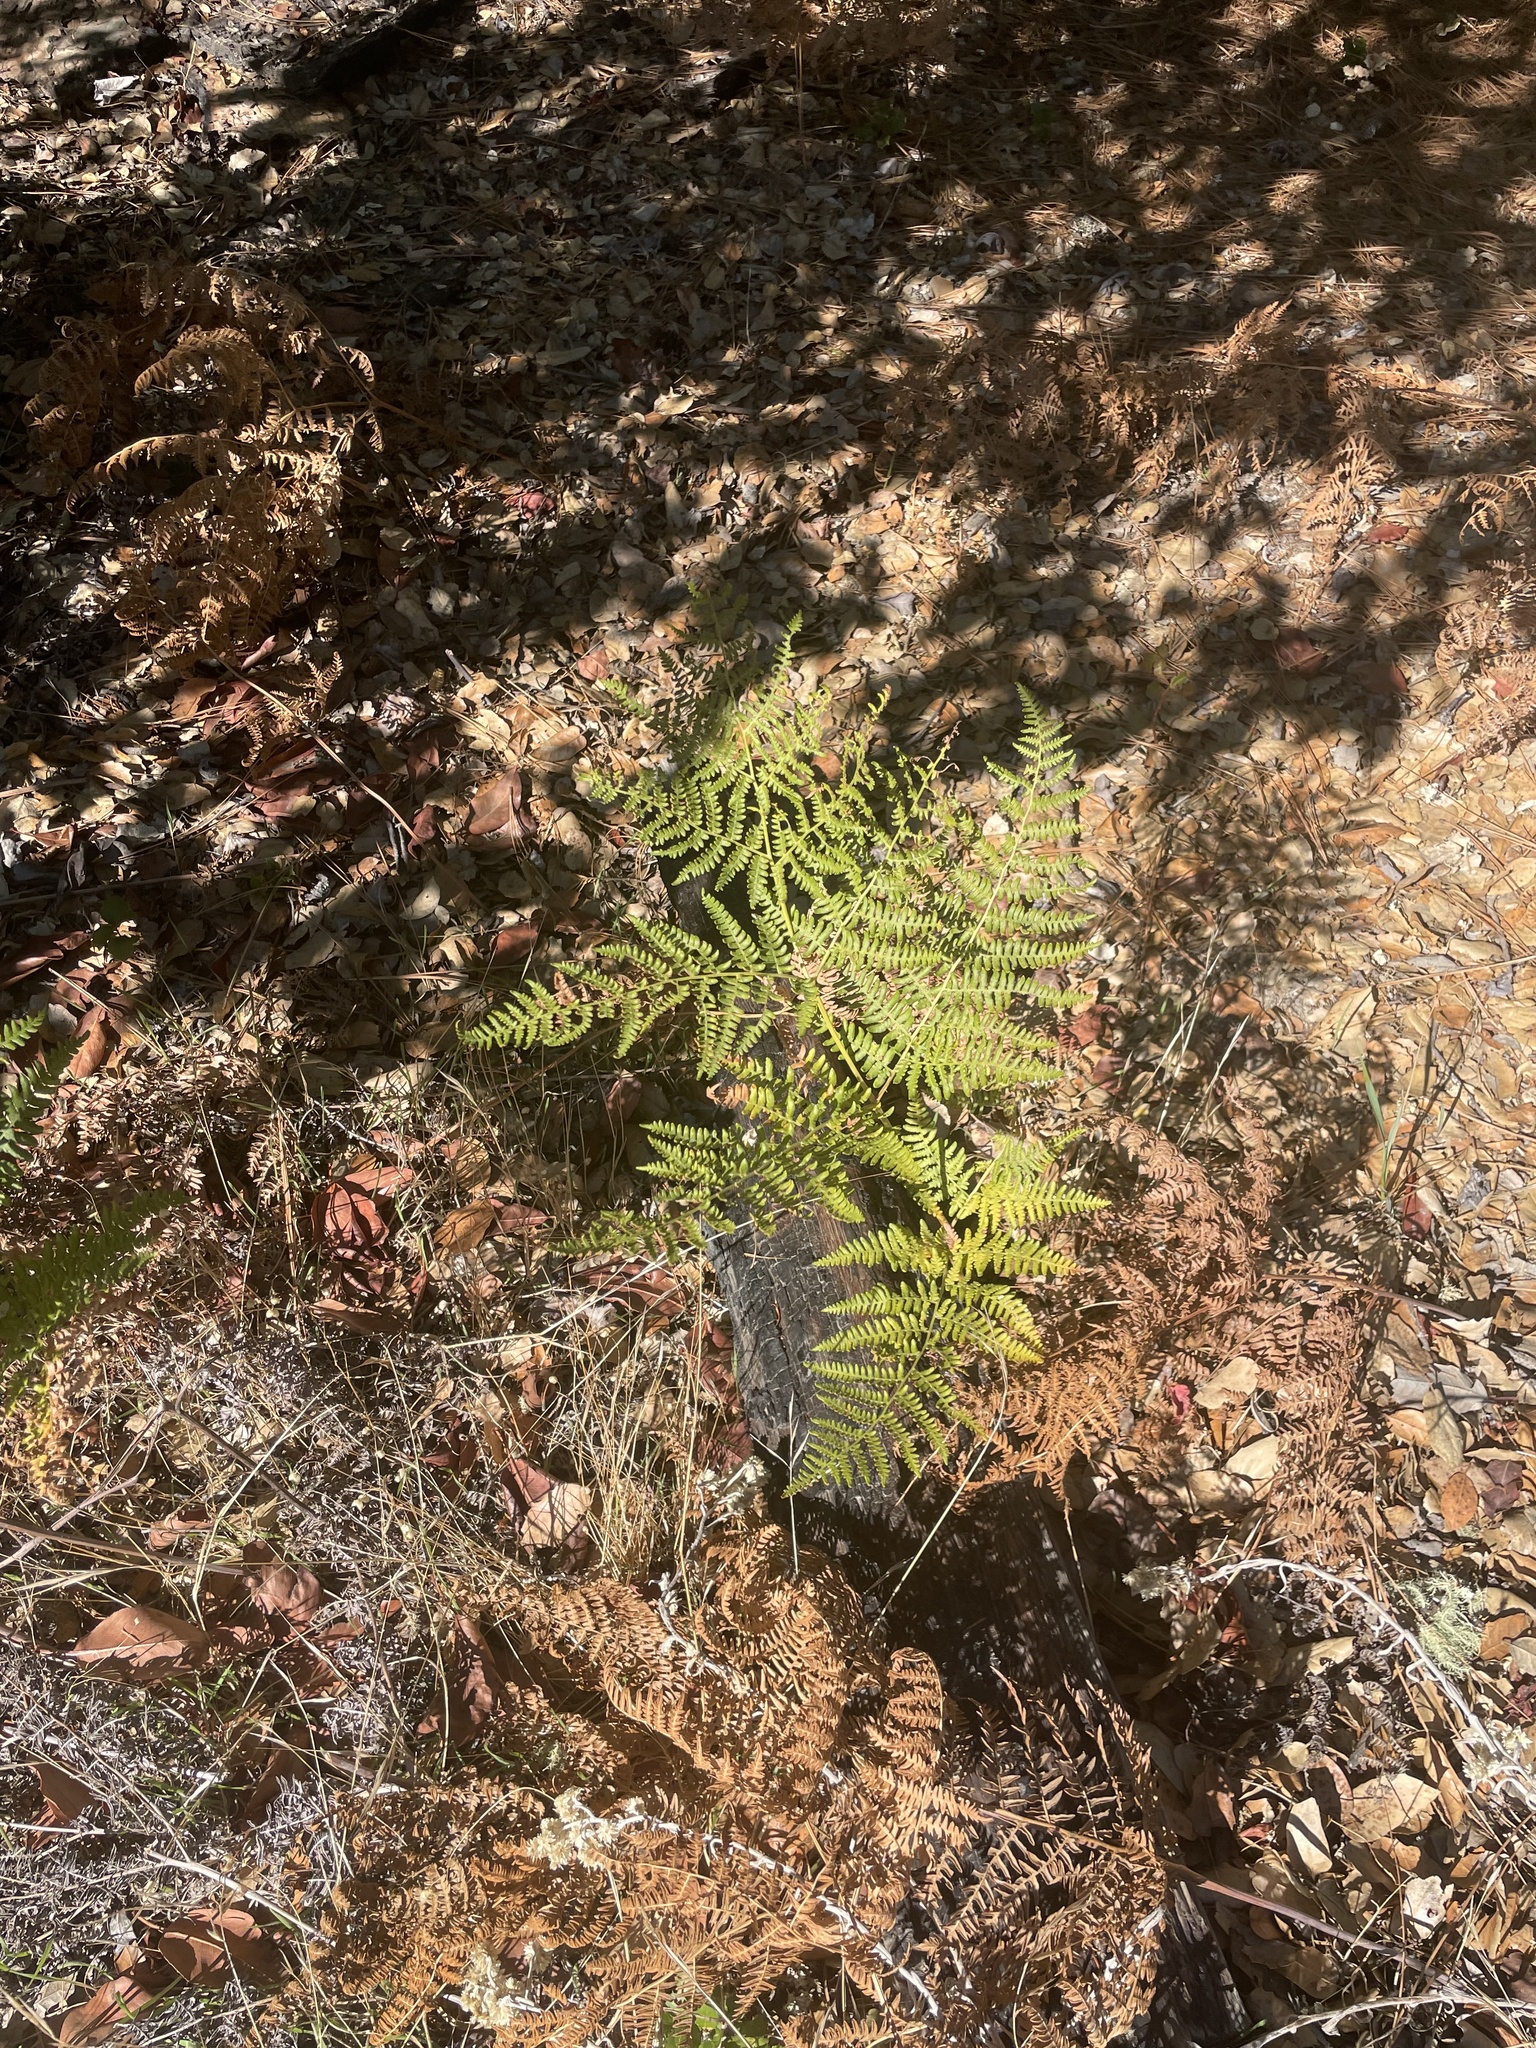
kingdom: Plantae
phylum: Tracheophyta
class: Polypodiopsida
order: Polypodiales
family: Dennstaedtiaceae
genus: Pteridium
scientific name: Pteridium aquilinum
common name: Bracken
